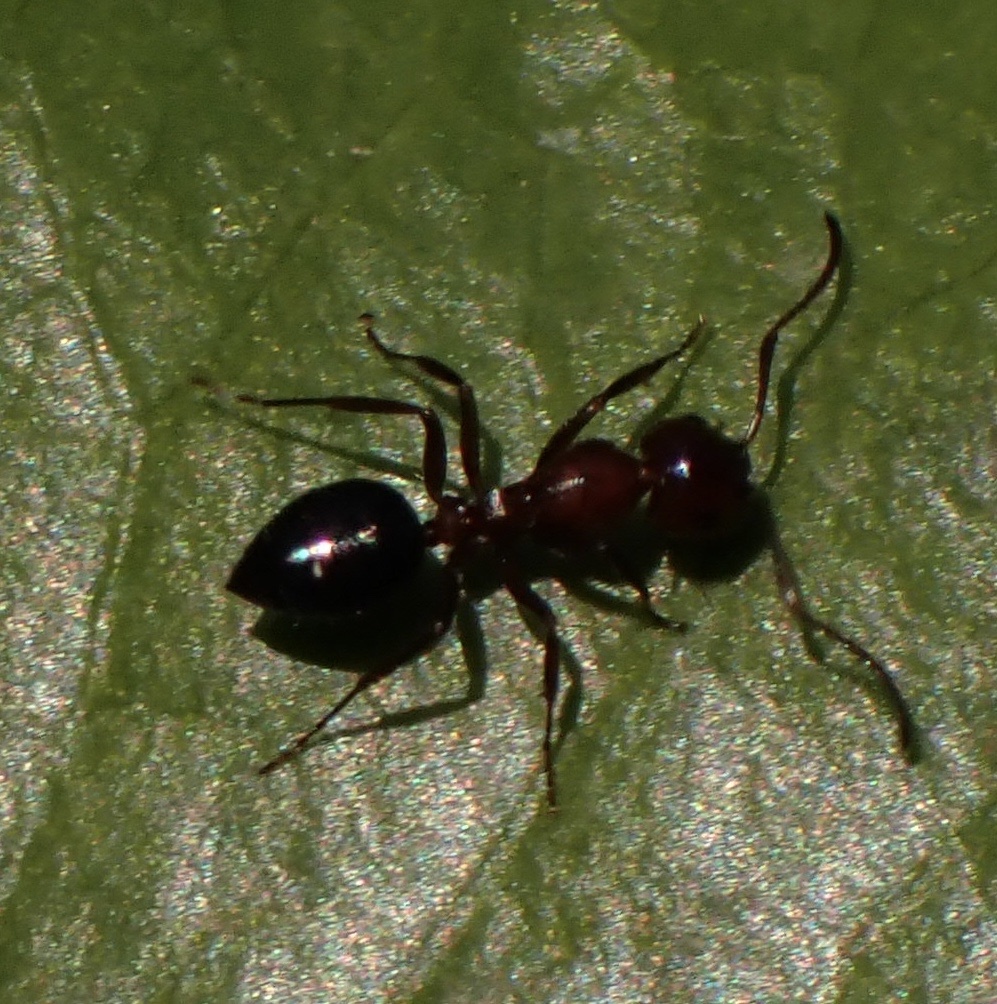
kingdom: Animalia
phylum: Arthropoda
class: Insecta
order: Hymenoptera
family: Formicidae
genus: Crematogaster
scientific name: Crematogaster scutellaris
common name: Fourmi du liège
